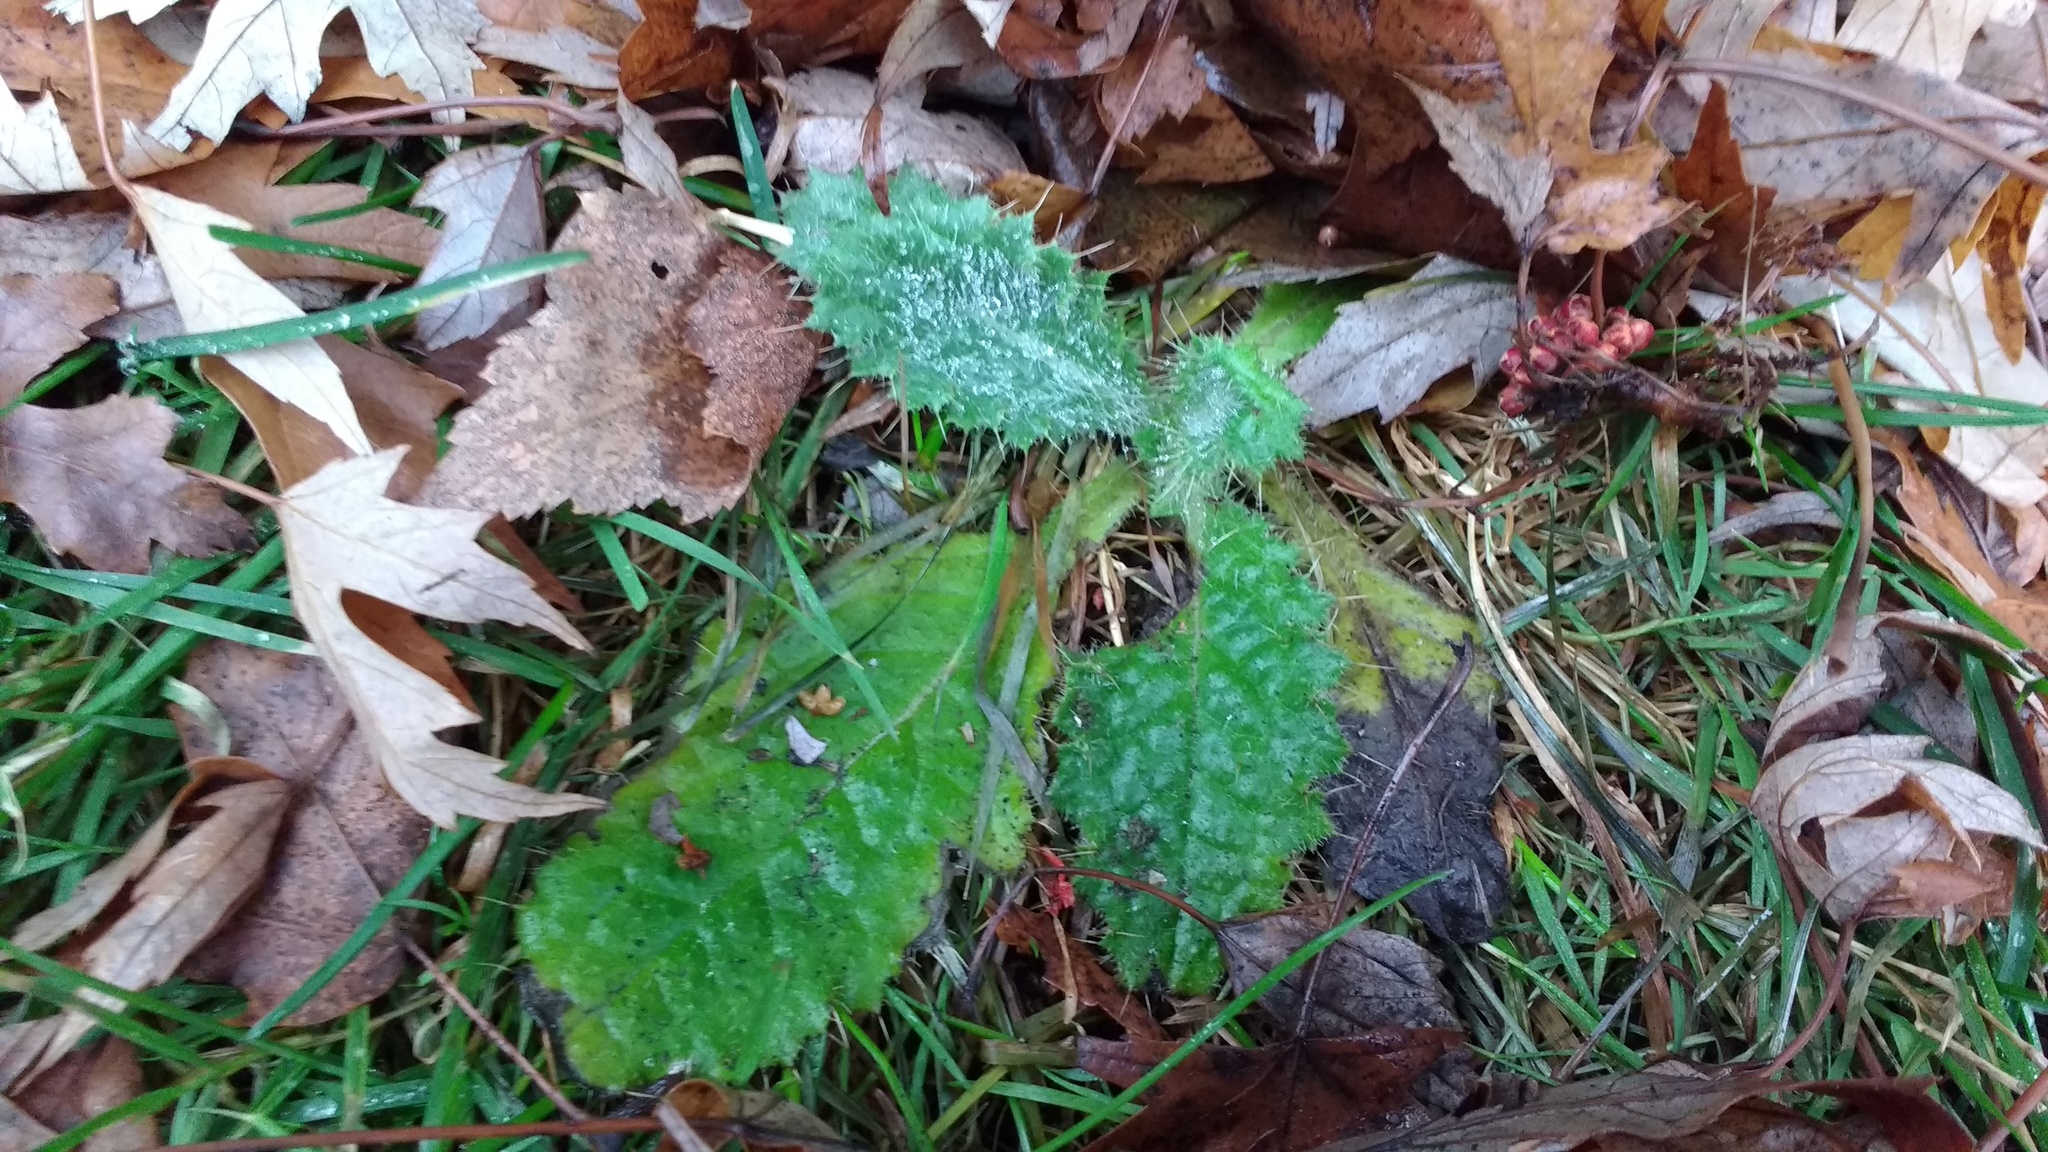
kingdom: Plantae
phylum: Tracheophyta
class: Magnoliopsida
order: Asterales
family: Asteraceae
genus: Cirsium
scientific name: Cirsium vulgare
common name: Bull thistle
